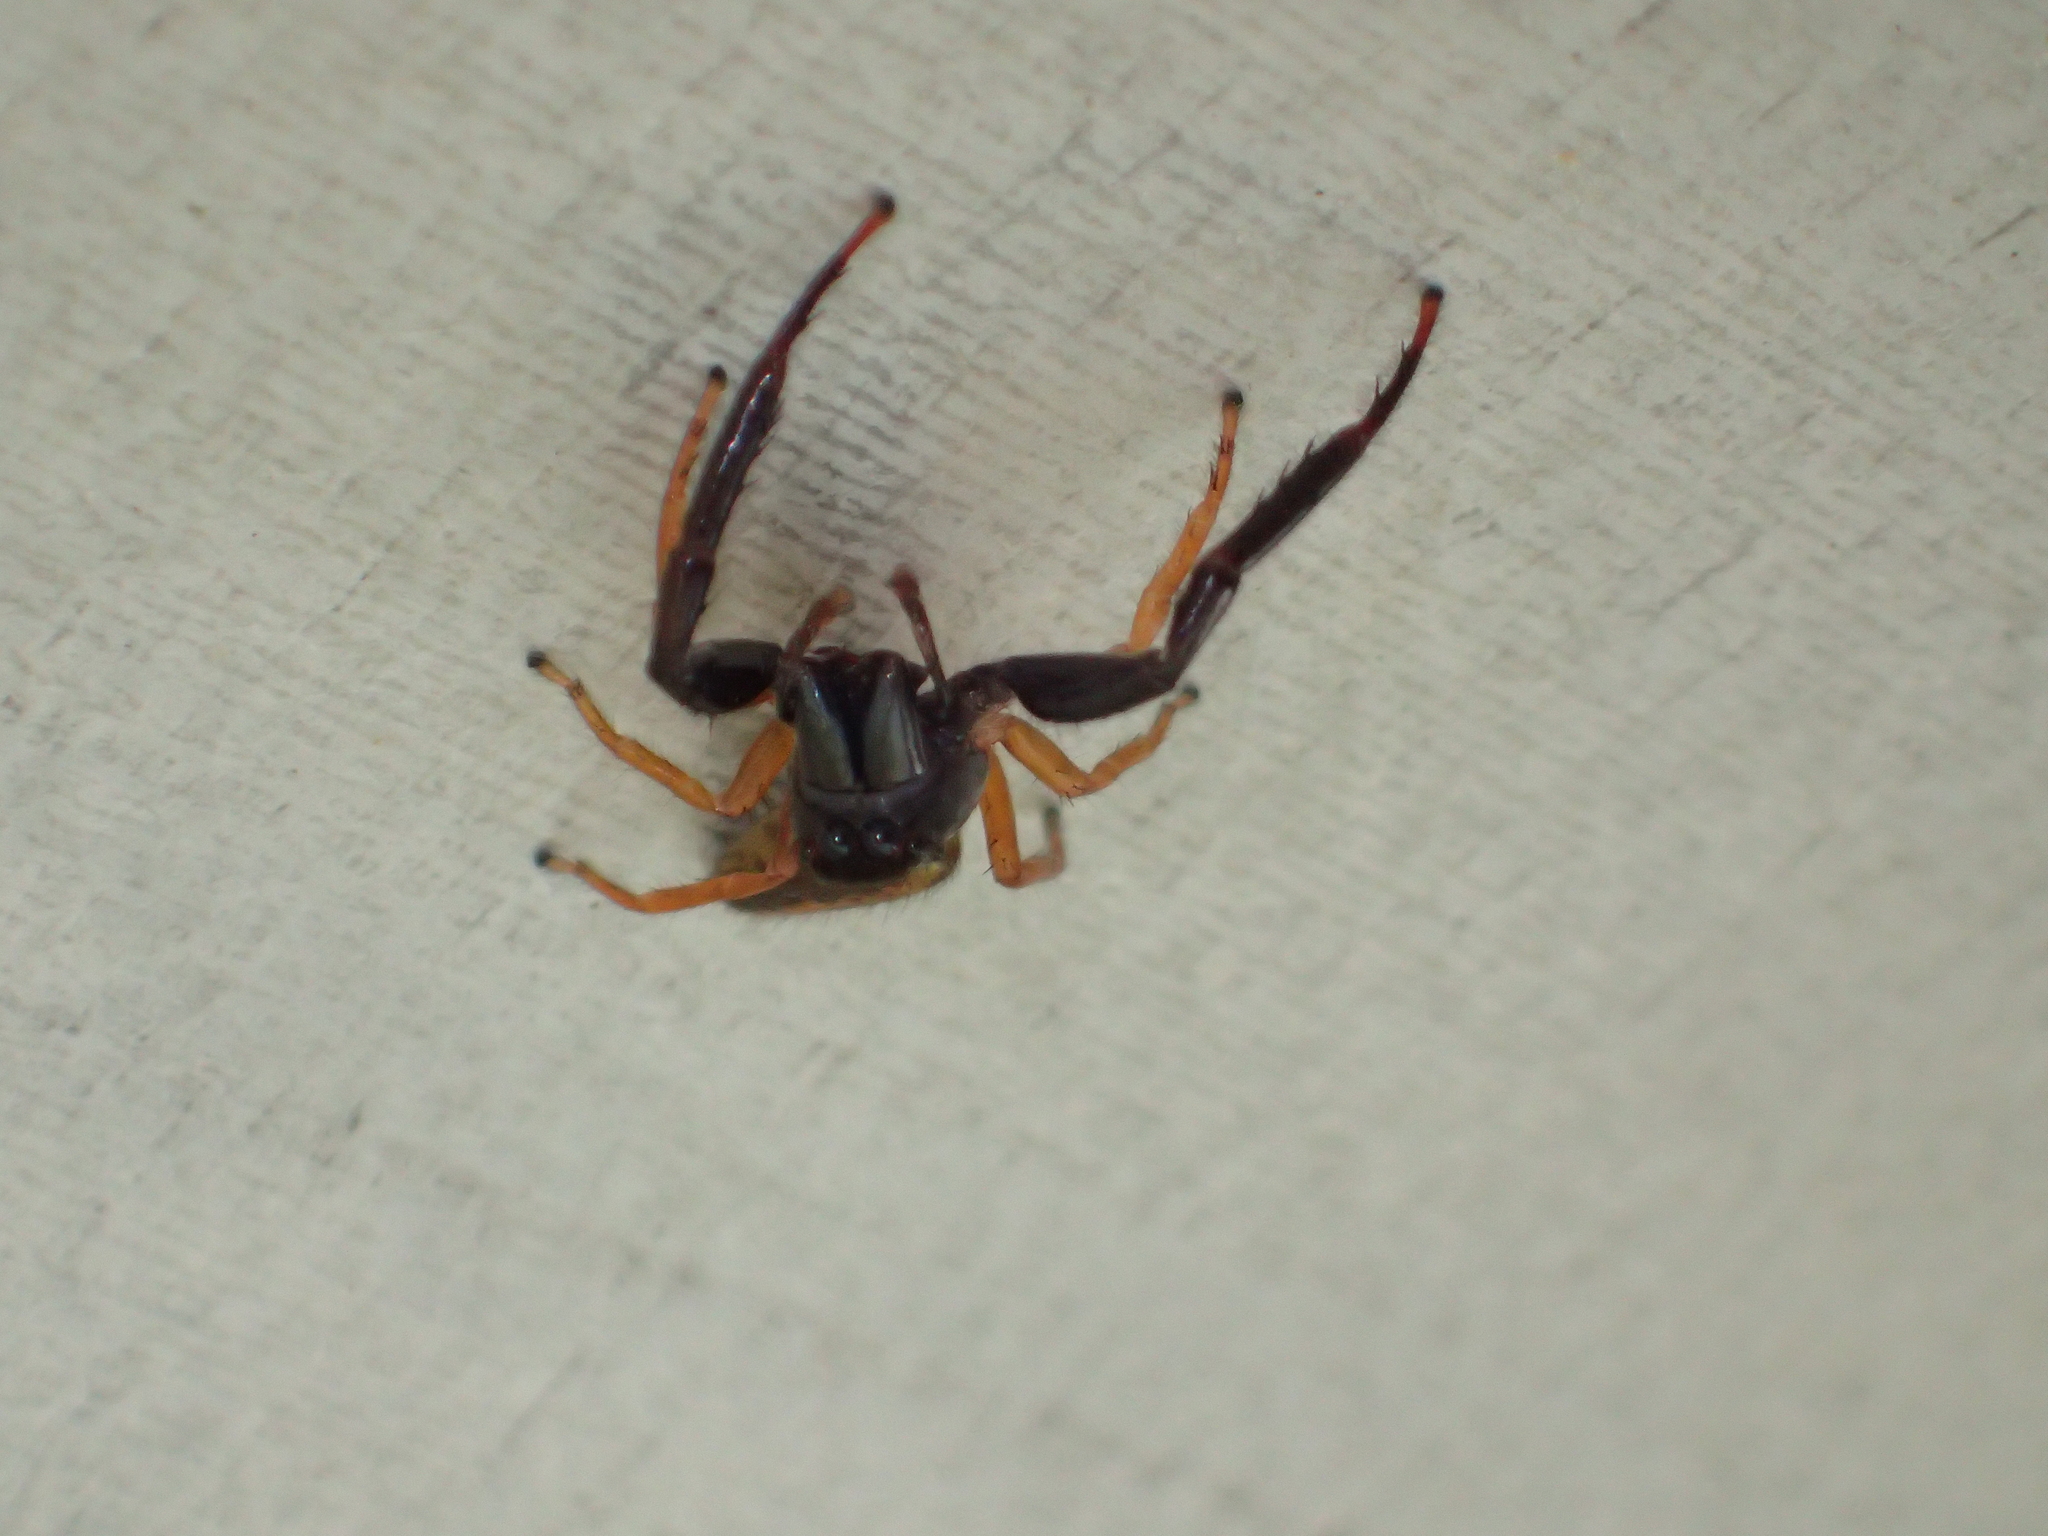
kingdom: Animalia
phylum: Arthropoda
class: Arachnida
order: Araneae
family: Salticidae
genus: Trite
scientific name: Trite planiceps
